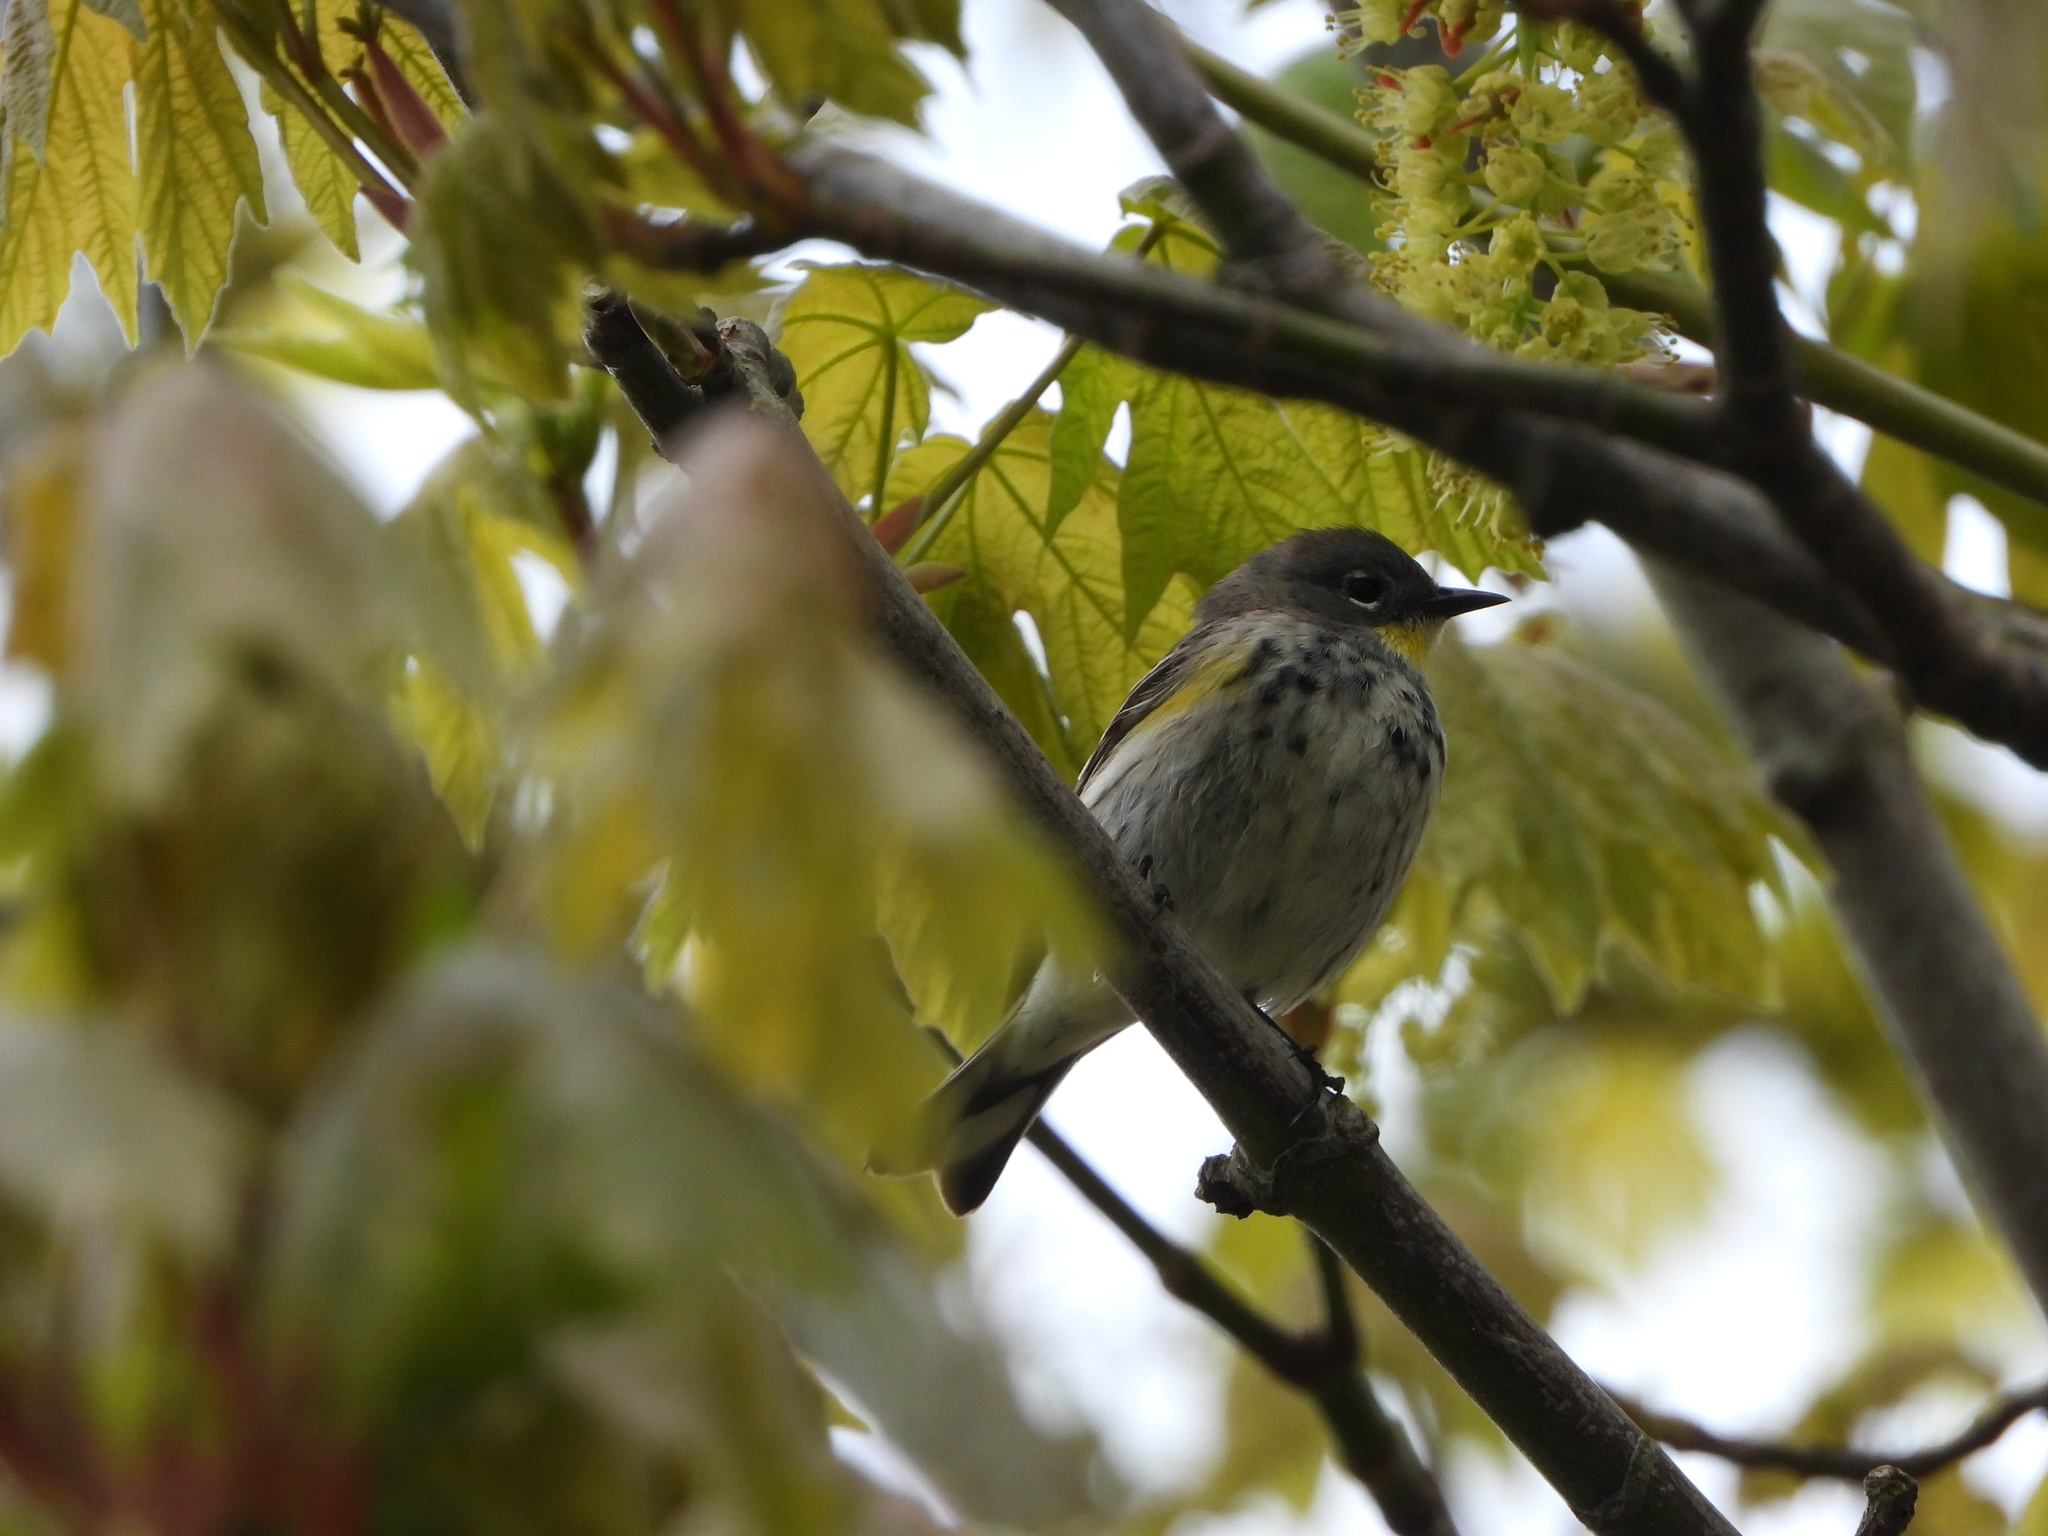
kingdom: Animalia
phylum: Chordata
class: Aves
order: Passeriformes
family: Parulidae
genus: Setophaga
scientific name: Setophaga auduboni
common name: Audubon's warbler
